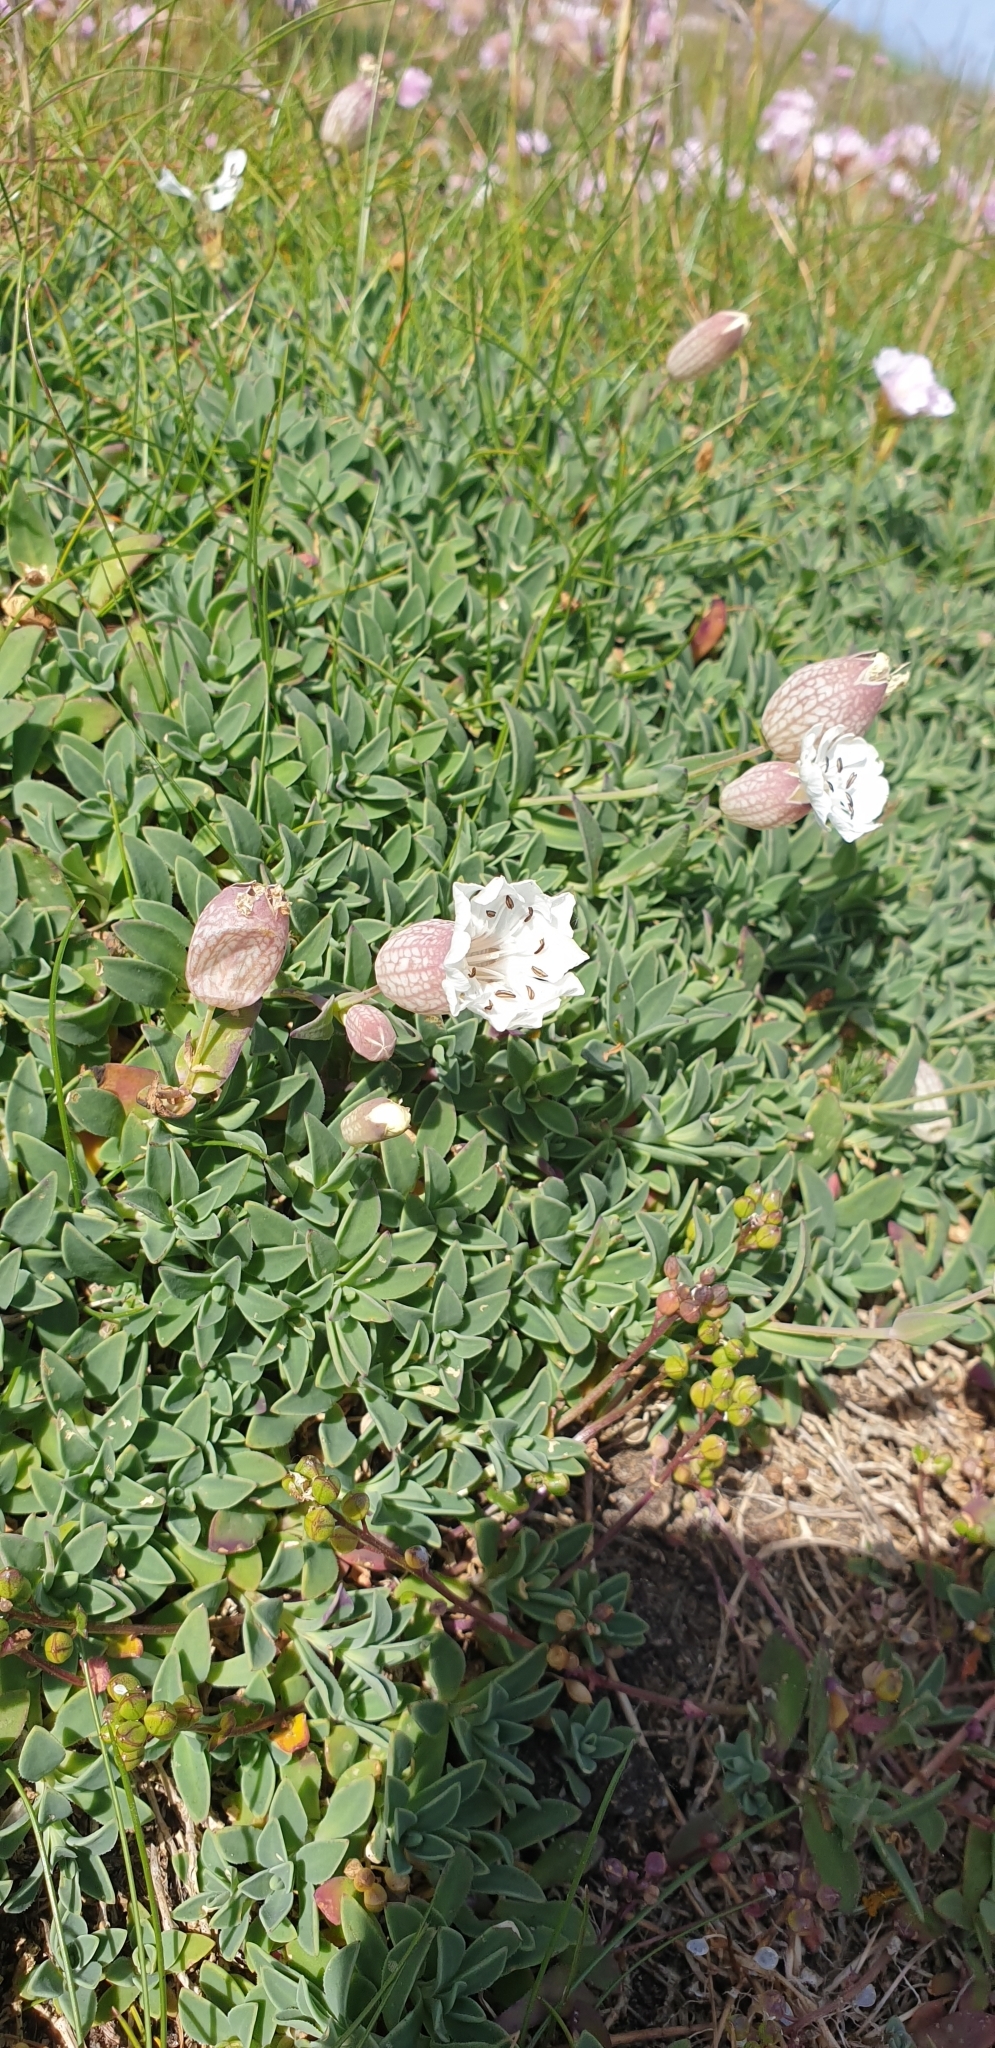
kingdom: Plantae
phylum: Tracheophyta
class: Magnoliopsida
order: Caryophyllales
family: Caryophyllaceae
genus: Silene
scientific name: Silene uniflora
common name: Sea campion
